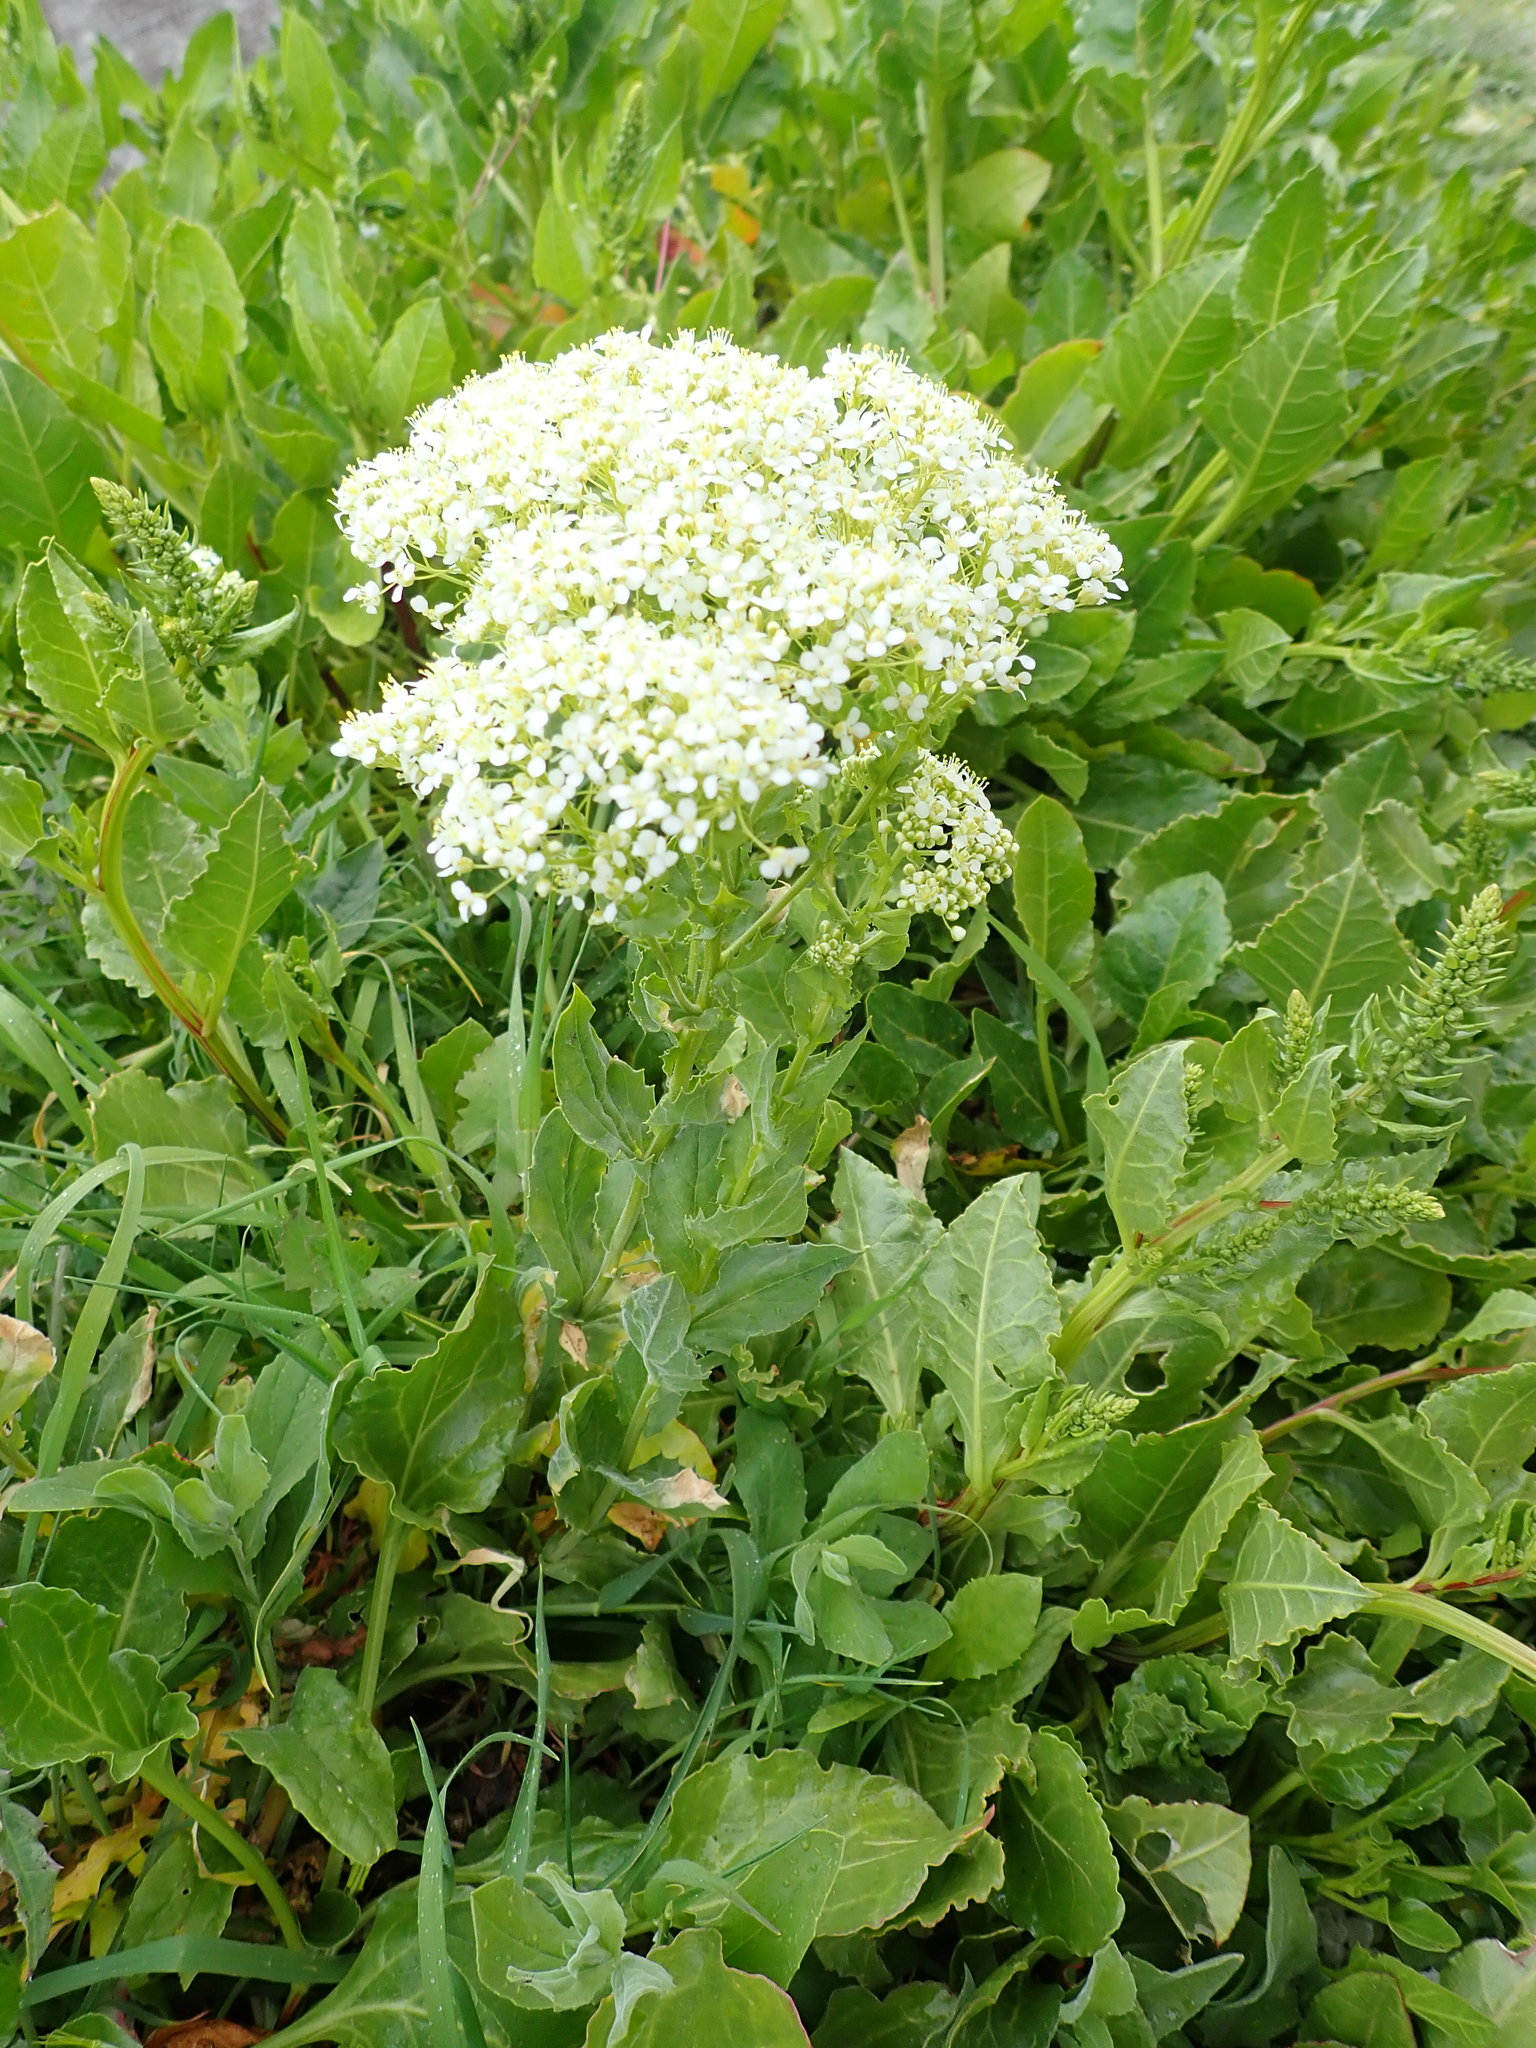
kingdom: Plantae
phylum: Tracheophyta
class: Magnoliopsida
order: Brassicales
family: Brassicaceae
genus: Lepidium
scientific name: Lepidium draba
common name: Hoary cress
